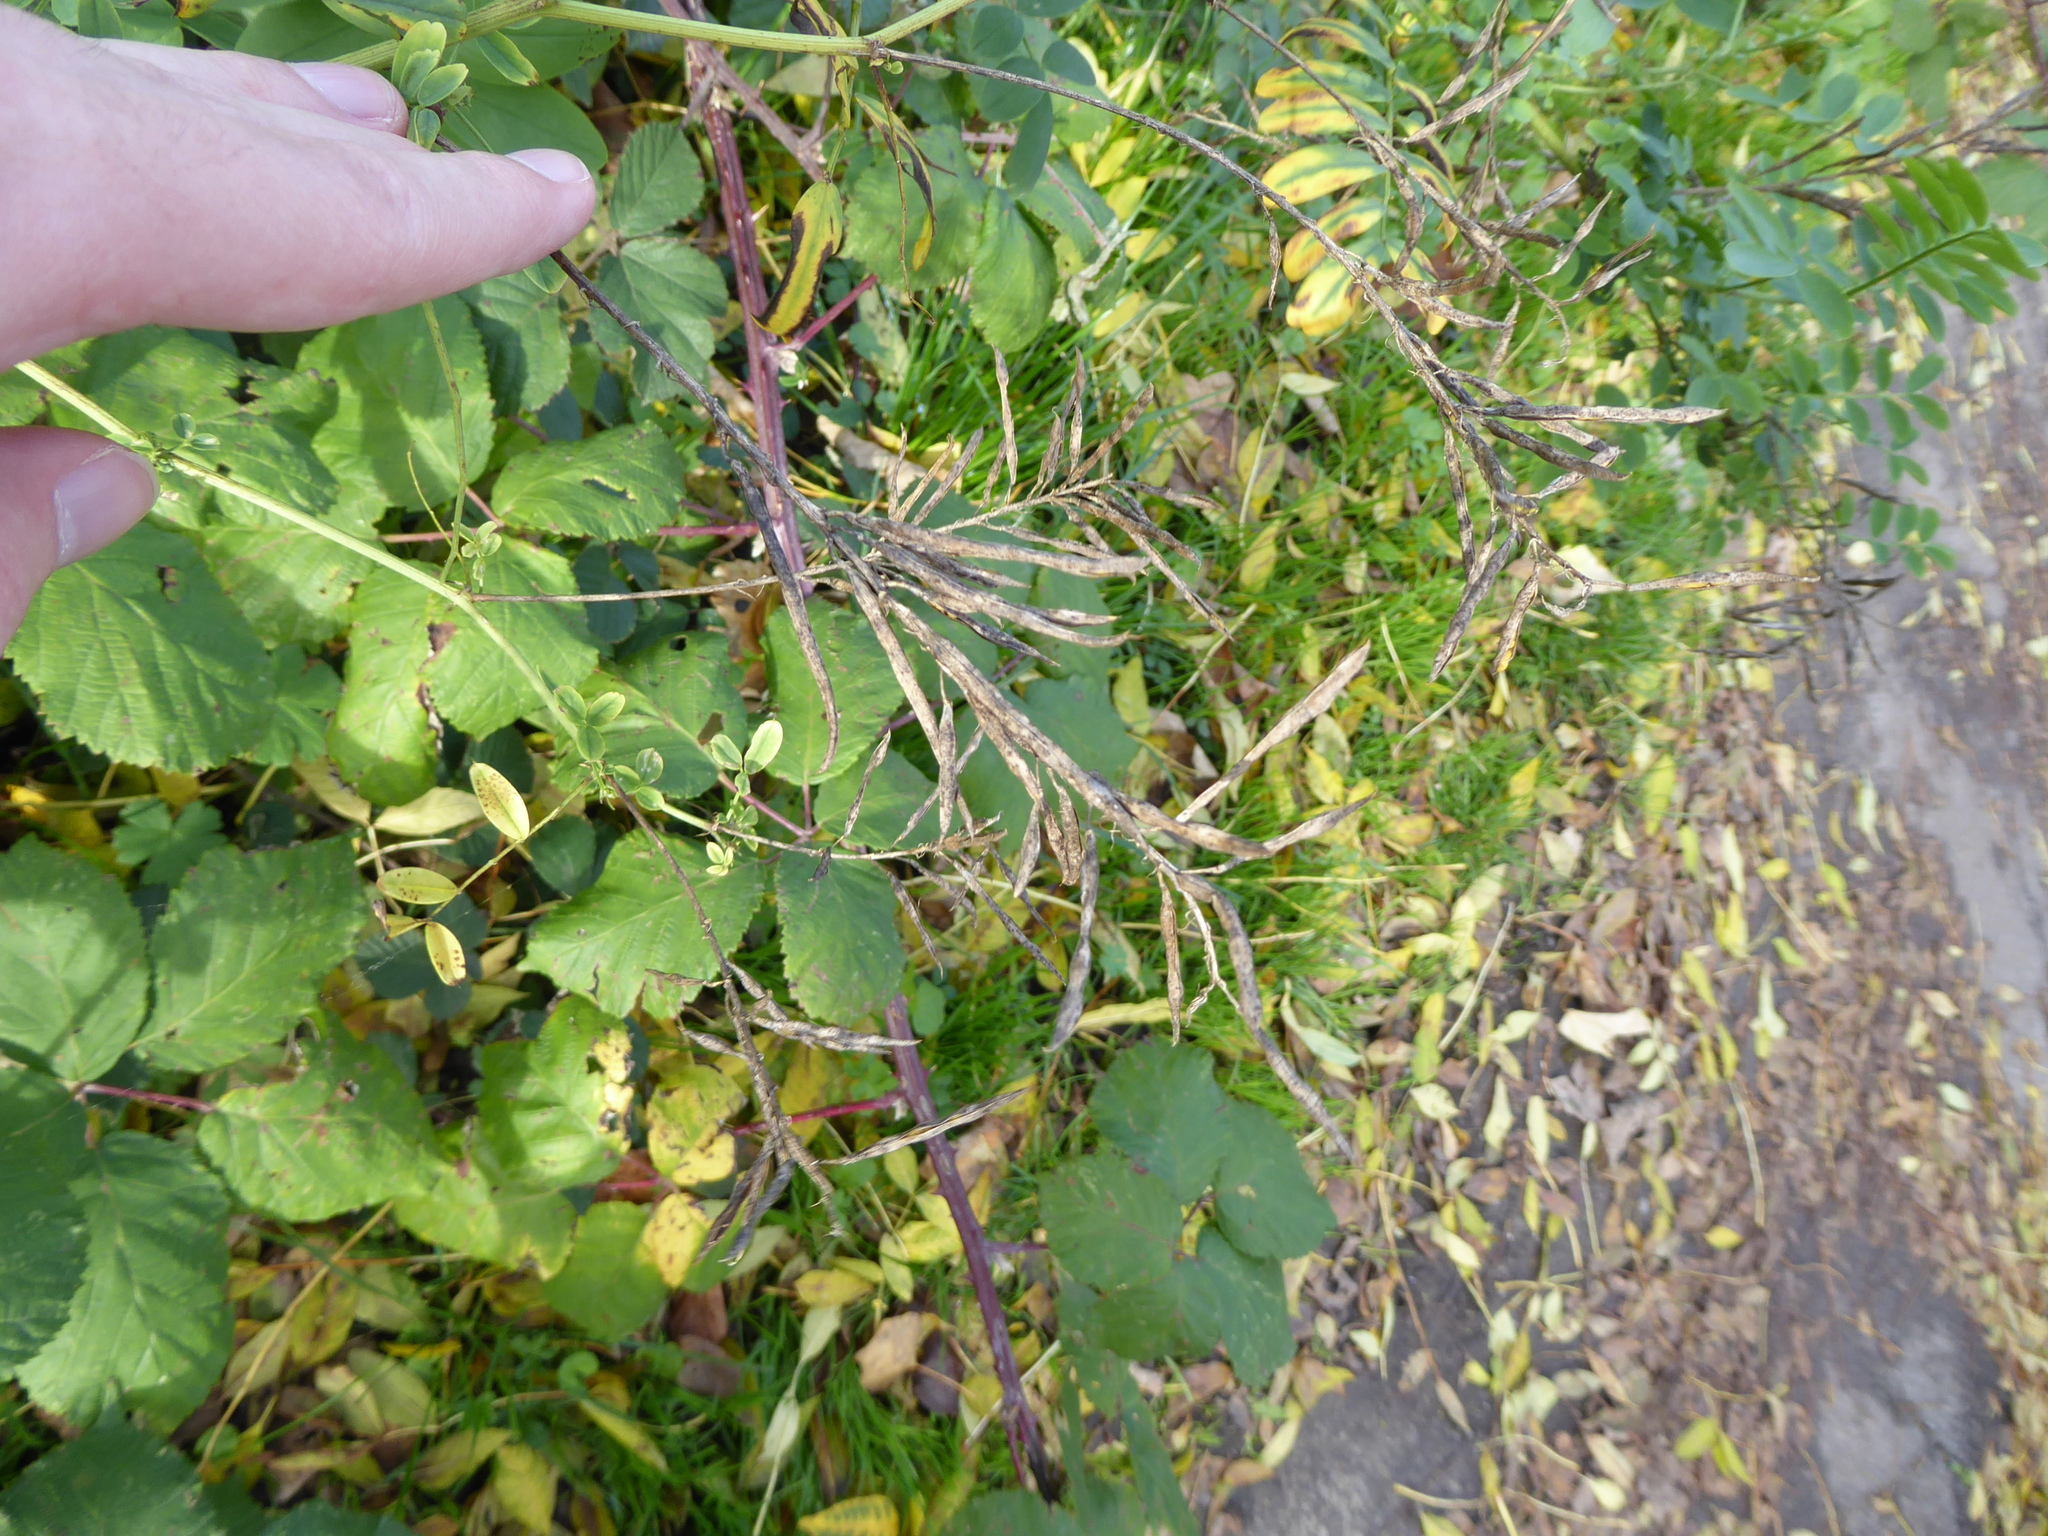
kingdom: Plantae
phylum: Tracheophyta
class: Magnoliopsida
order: Fabales
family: Fabaceae
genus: Galega
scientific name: Galega officinalis
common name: Goat's-rue
